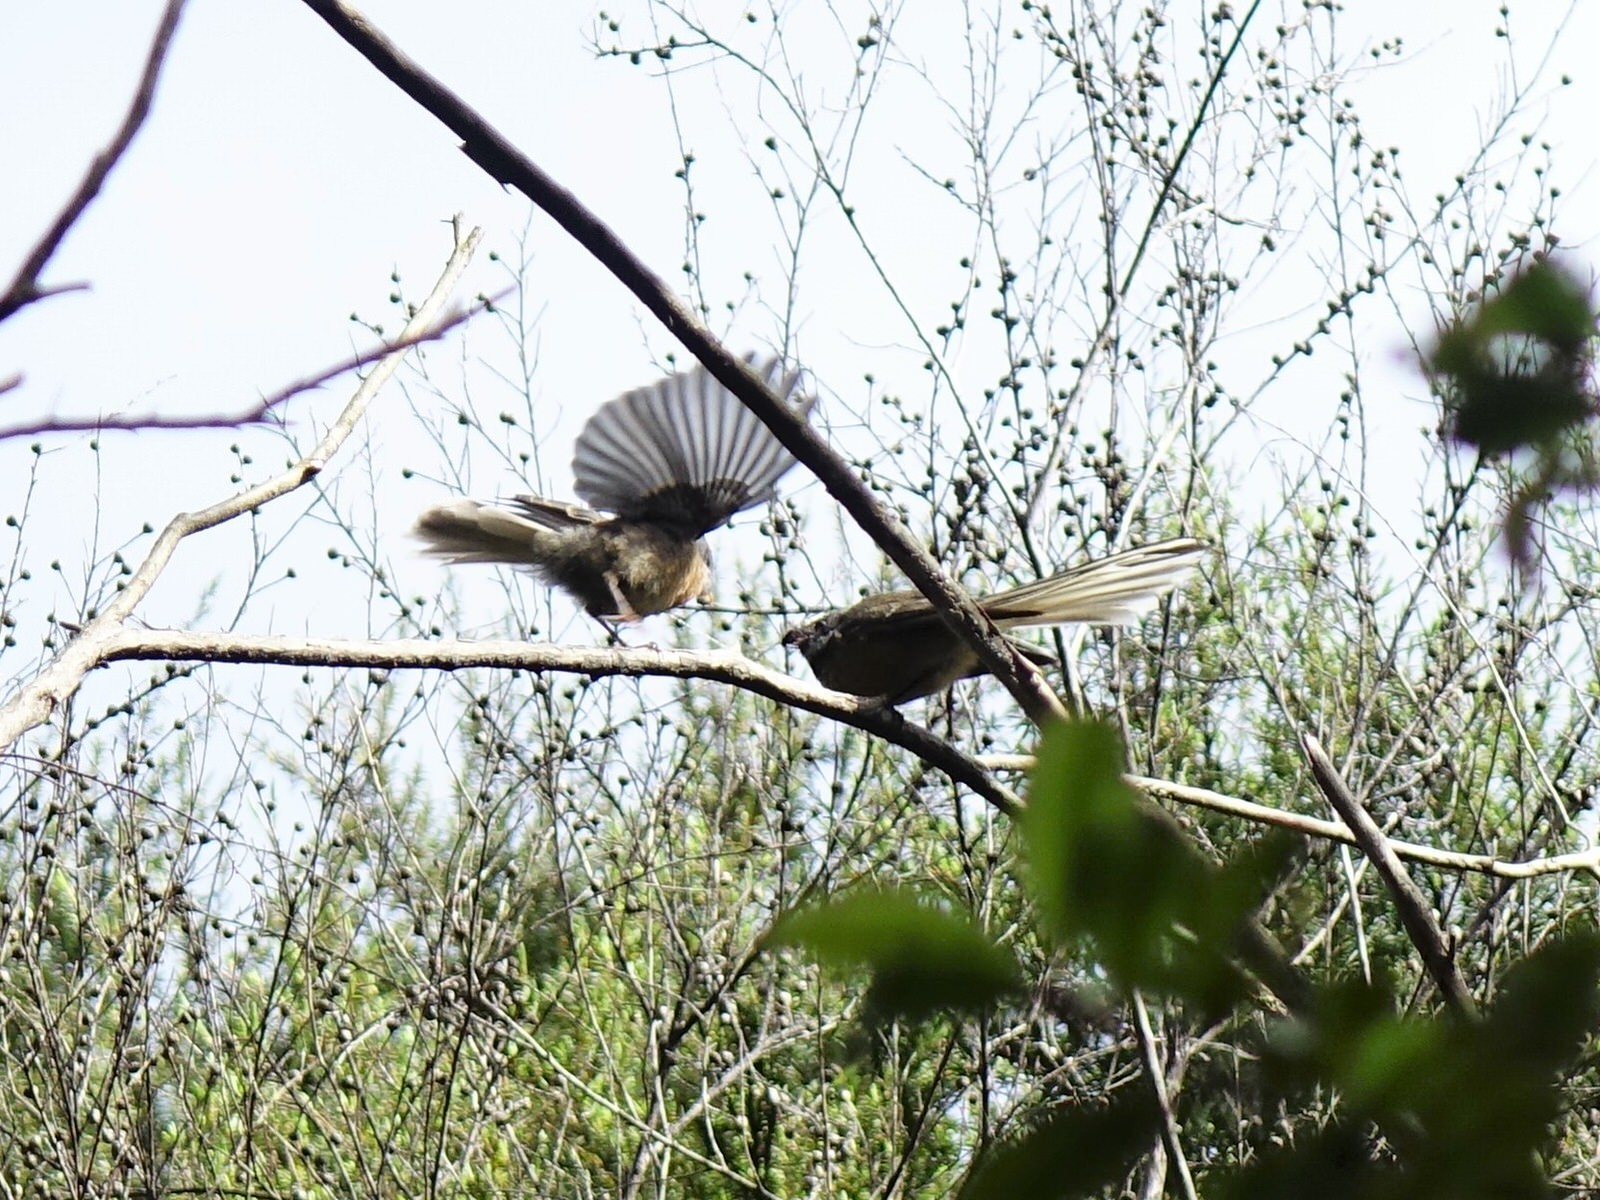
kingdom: Animalia
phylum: Chordata
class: Aves
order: Passeriformes
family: Rhipiduridae
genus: Rhipidura
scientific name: Rhipidura fuliginosa
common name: New zealand fantail
